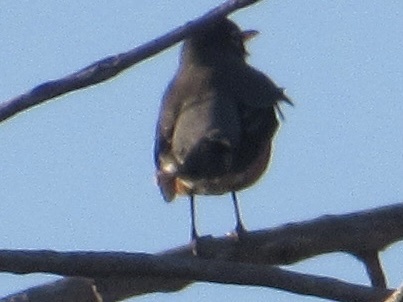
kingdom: Animalia
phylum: Chordata
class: Aves
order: Passeriformes
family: Turdidae
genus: Turdus
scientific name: Turdus migratorius
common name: American robin
